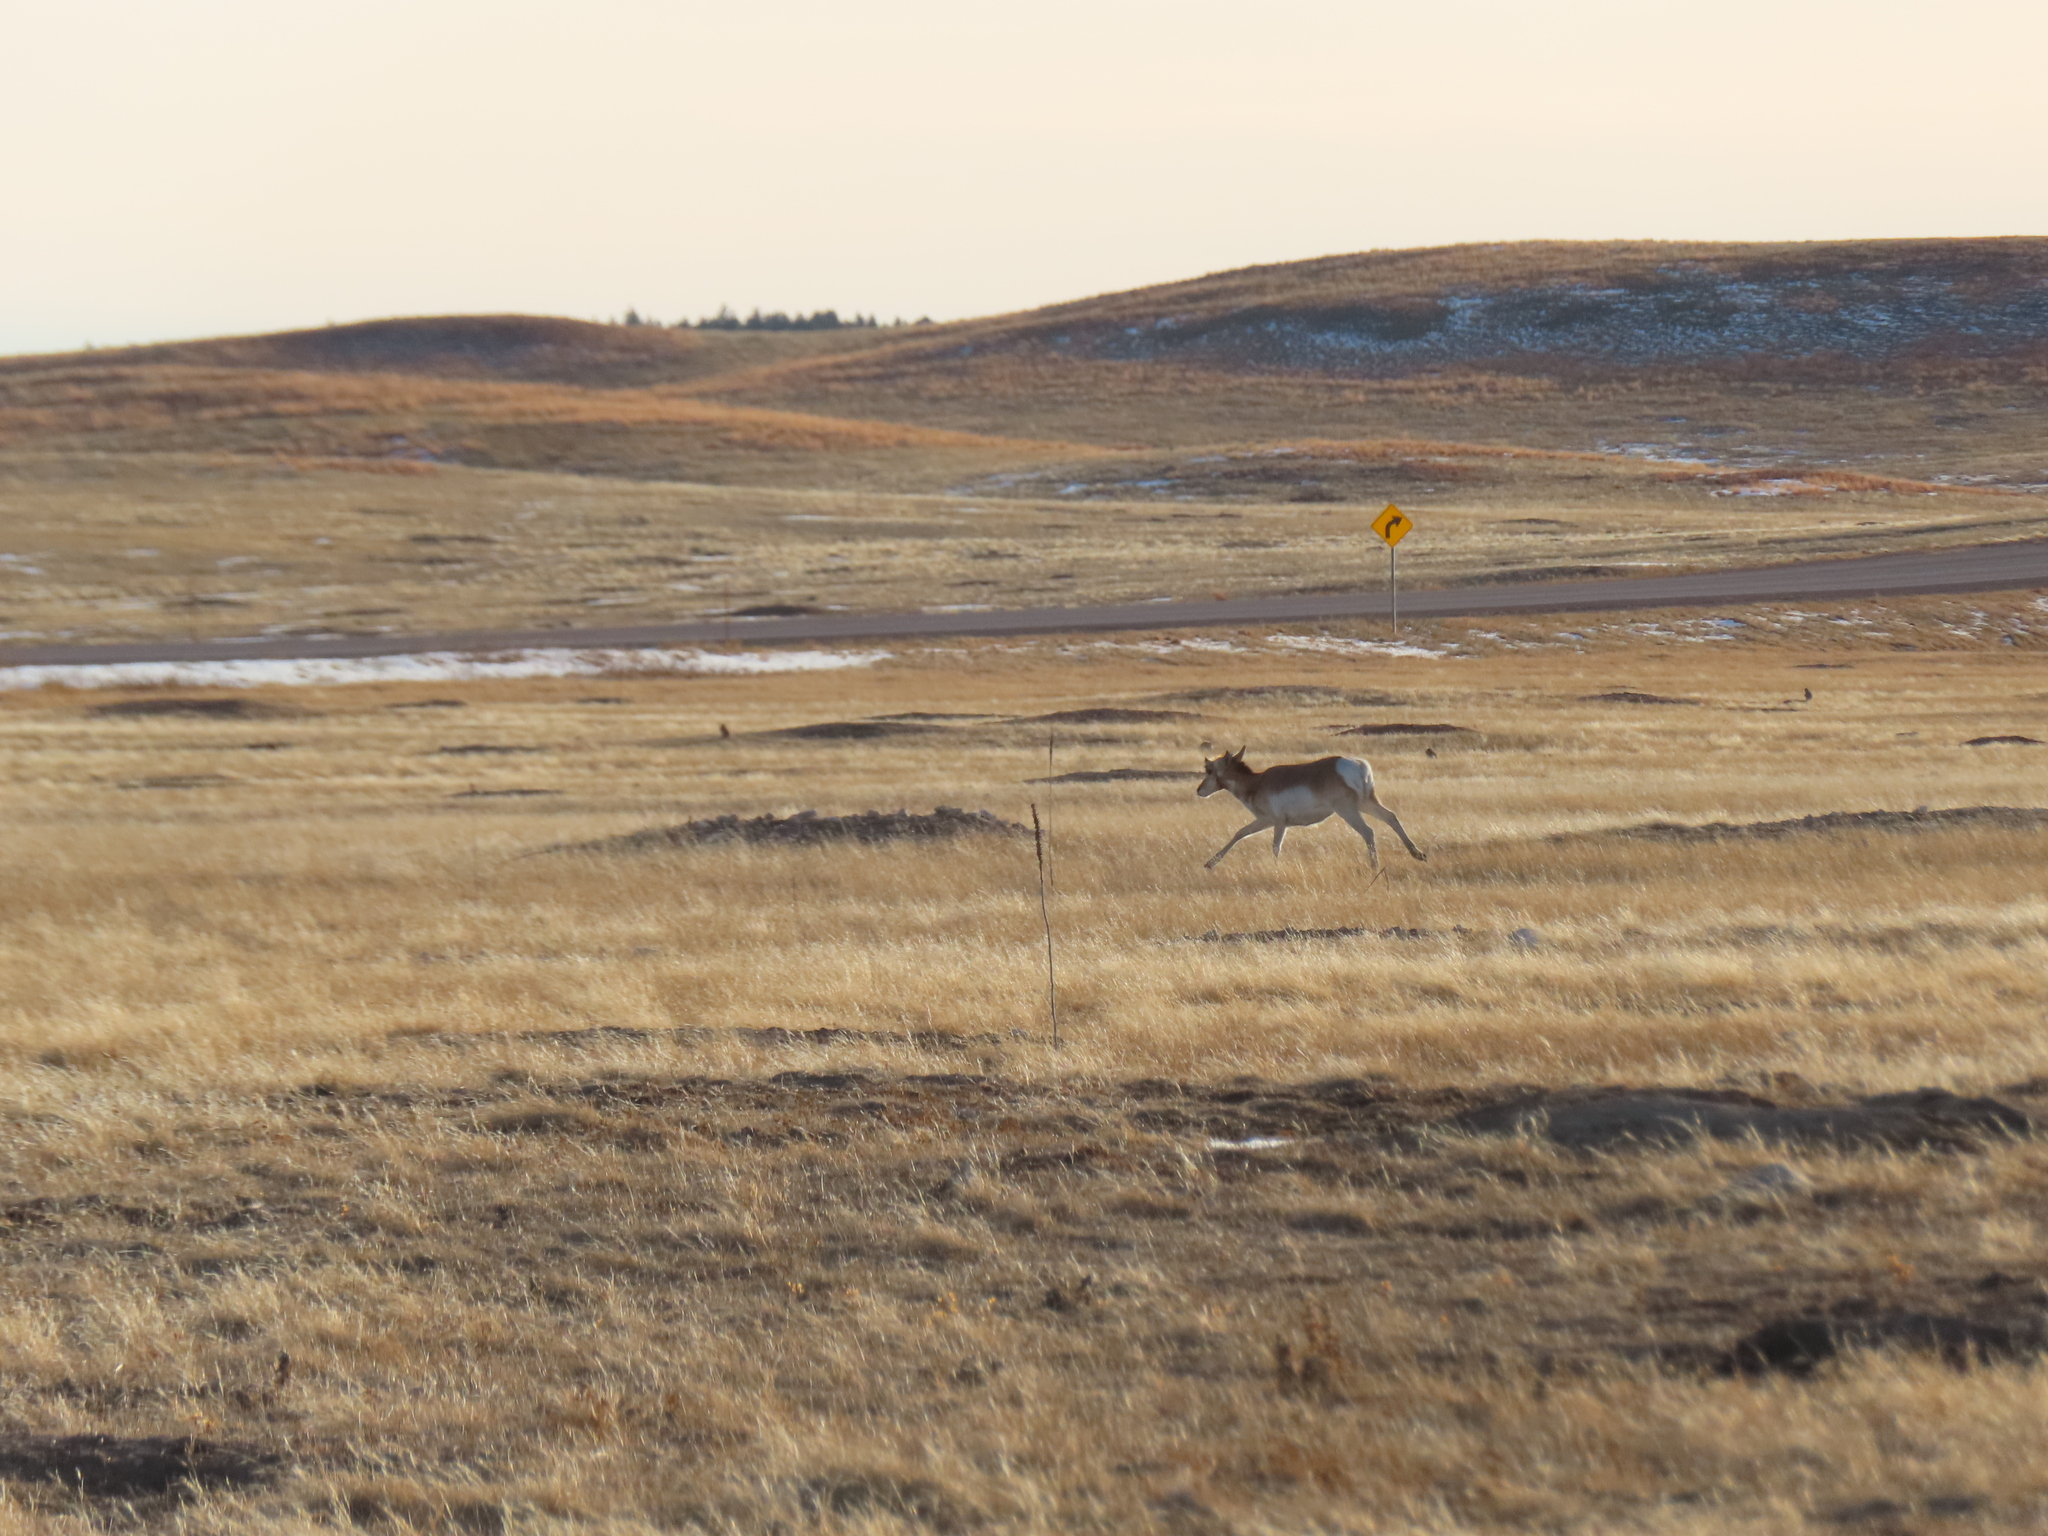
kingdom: Animalia
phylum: Chordata
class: Mammalia
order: Artiodactyla
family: Antilocapridae
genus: Antilocapra
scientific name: Antilocapra americana
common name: Pronghorn
